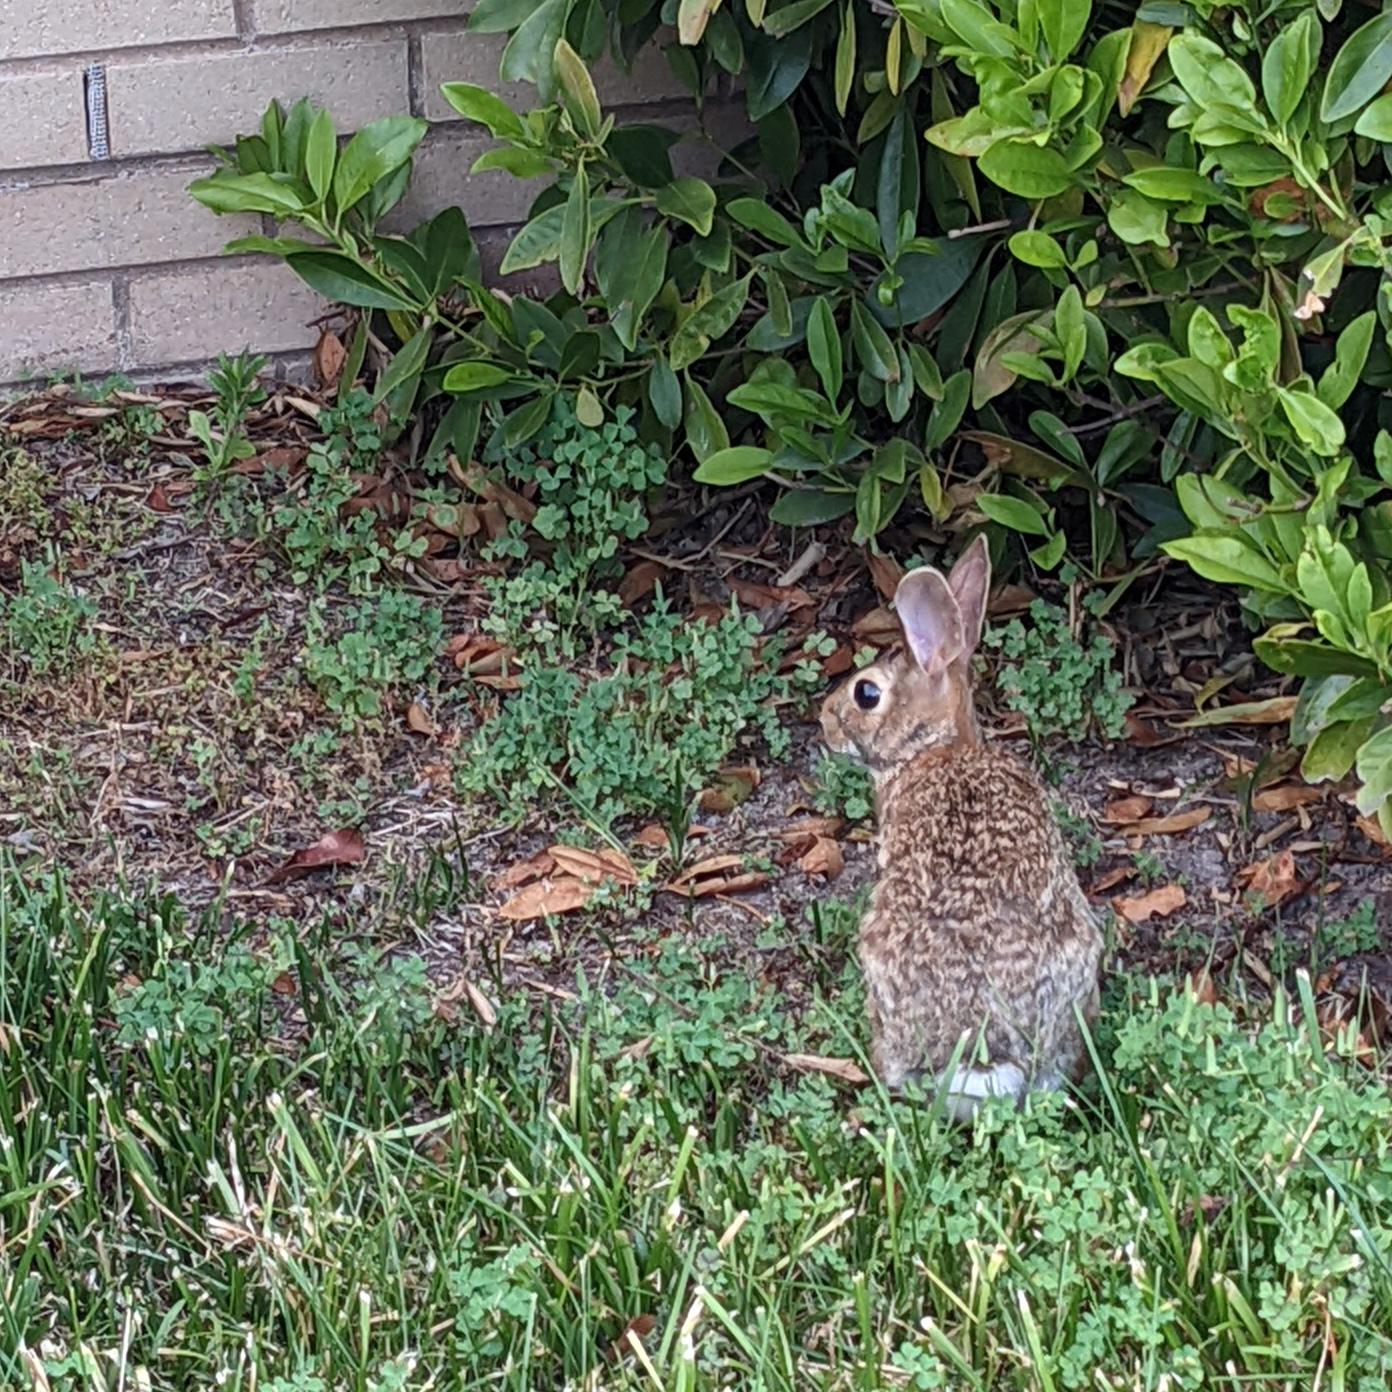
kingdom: Animalia
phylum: Chordata
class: Mammalia
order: Lagomorpha
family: Leporidae
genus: Sylvilagus
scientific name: Sylvilagus floridanus
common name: Eastern cottontail
